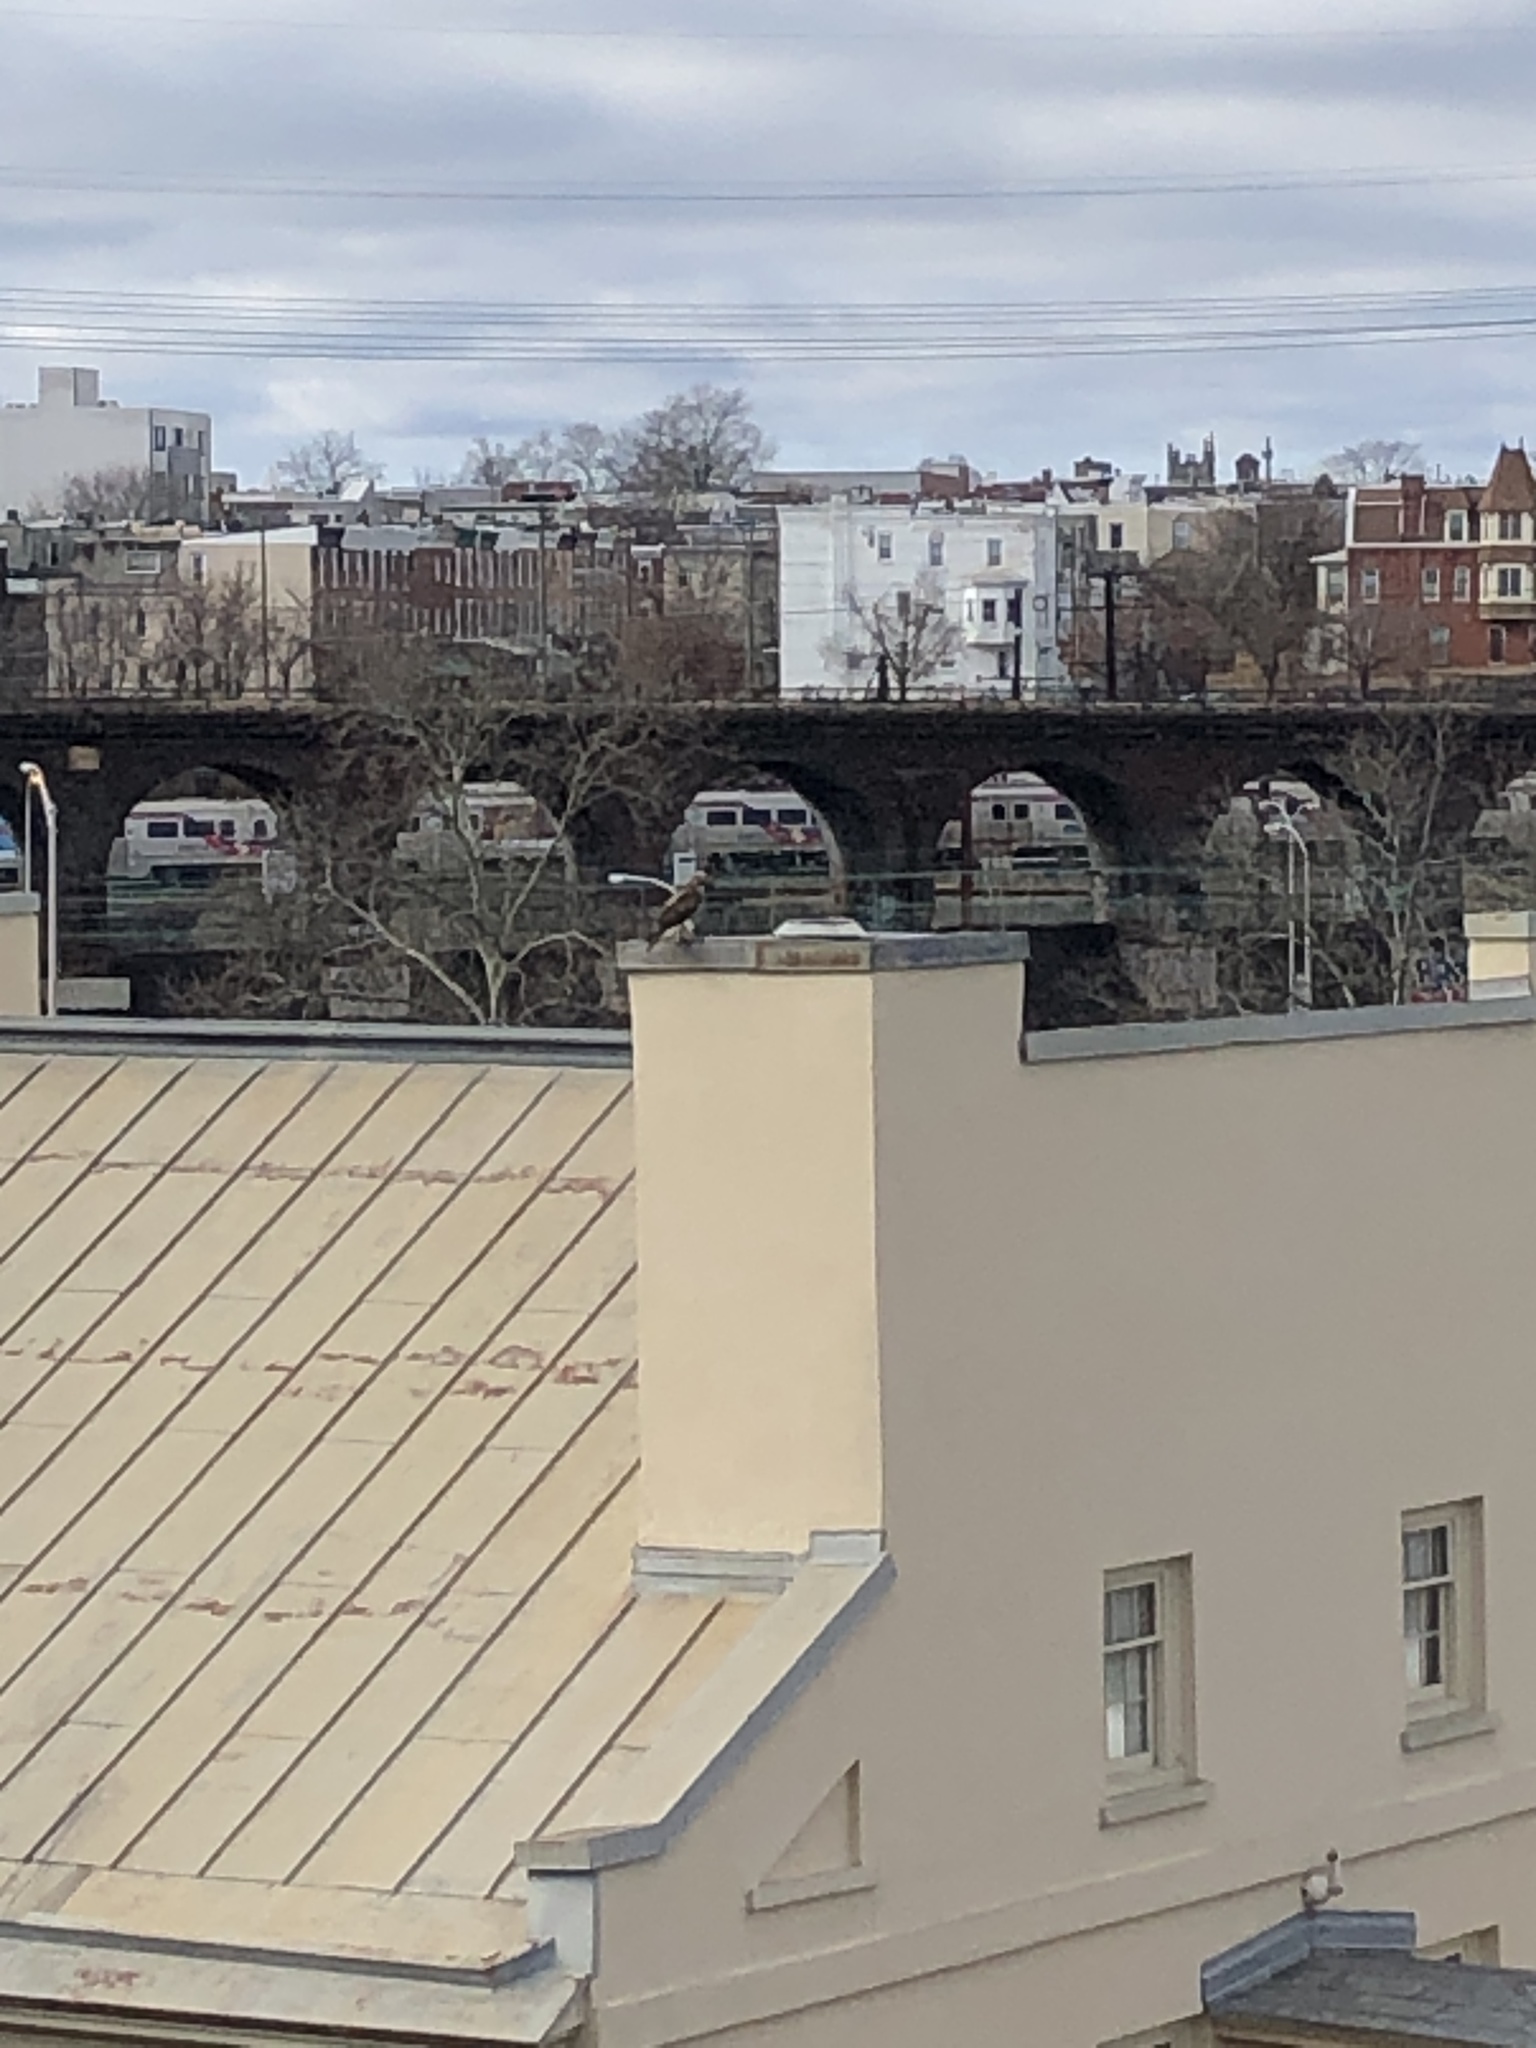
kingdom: Animalia
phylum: Chordata
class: Aves
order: Accipitriformes
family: Accipitridae
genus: Buteo
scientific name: Buteo jamaicensis
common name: Red-tailed hawk
